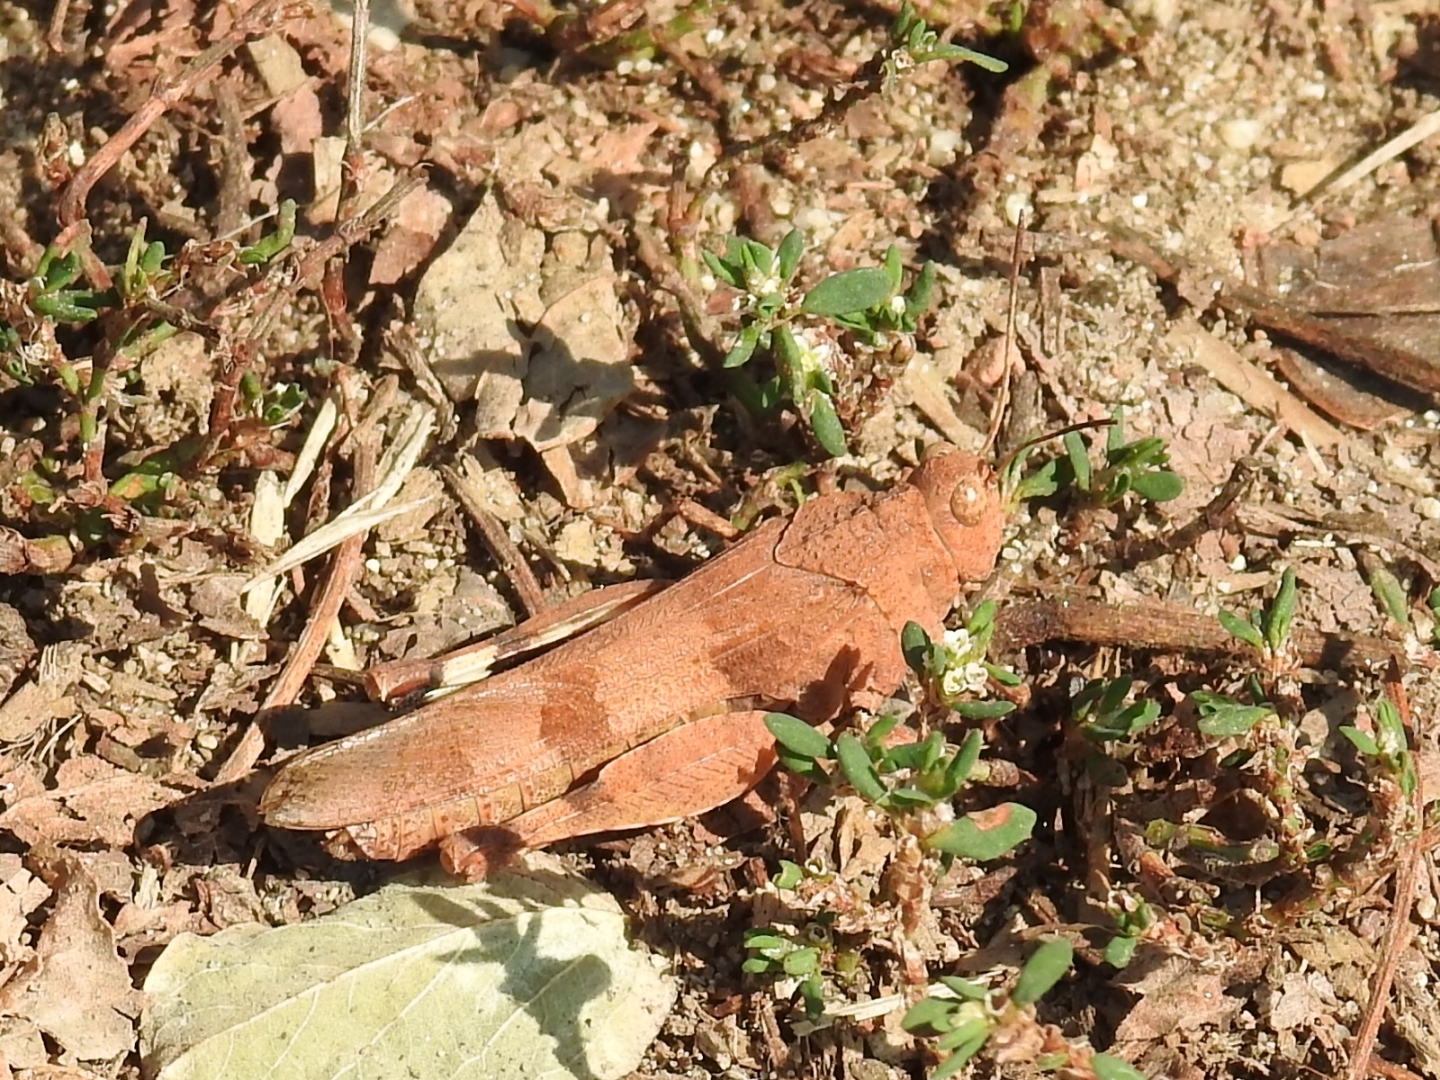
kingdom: Animalia
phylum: Arthropoda
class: Insecta
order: Orthoptera
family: Acrididae
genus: Oedipoda
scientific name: Oedipoda caerulescens
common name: Blue-winged grasshopper
